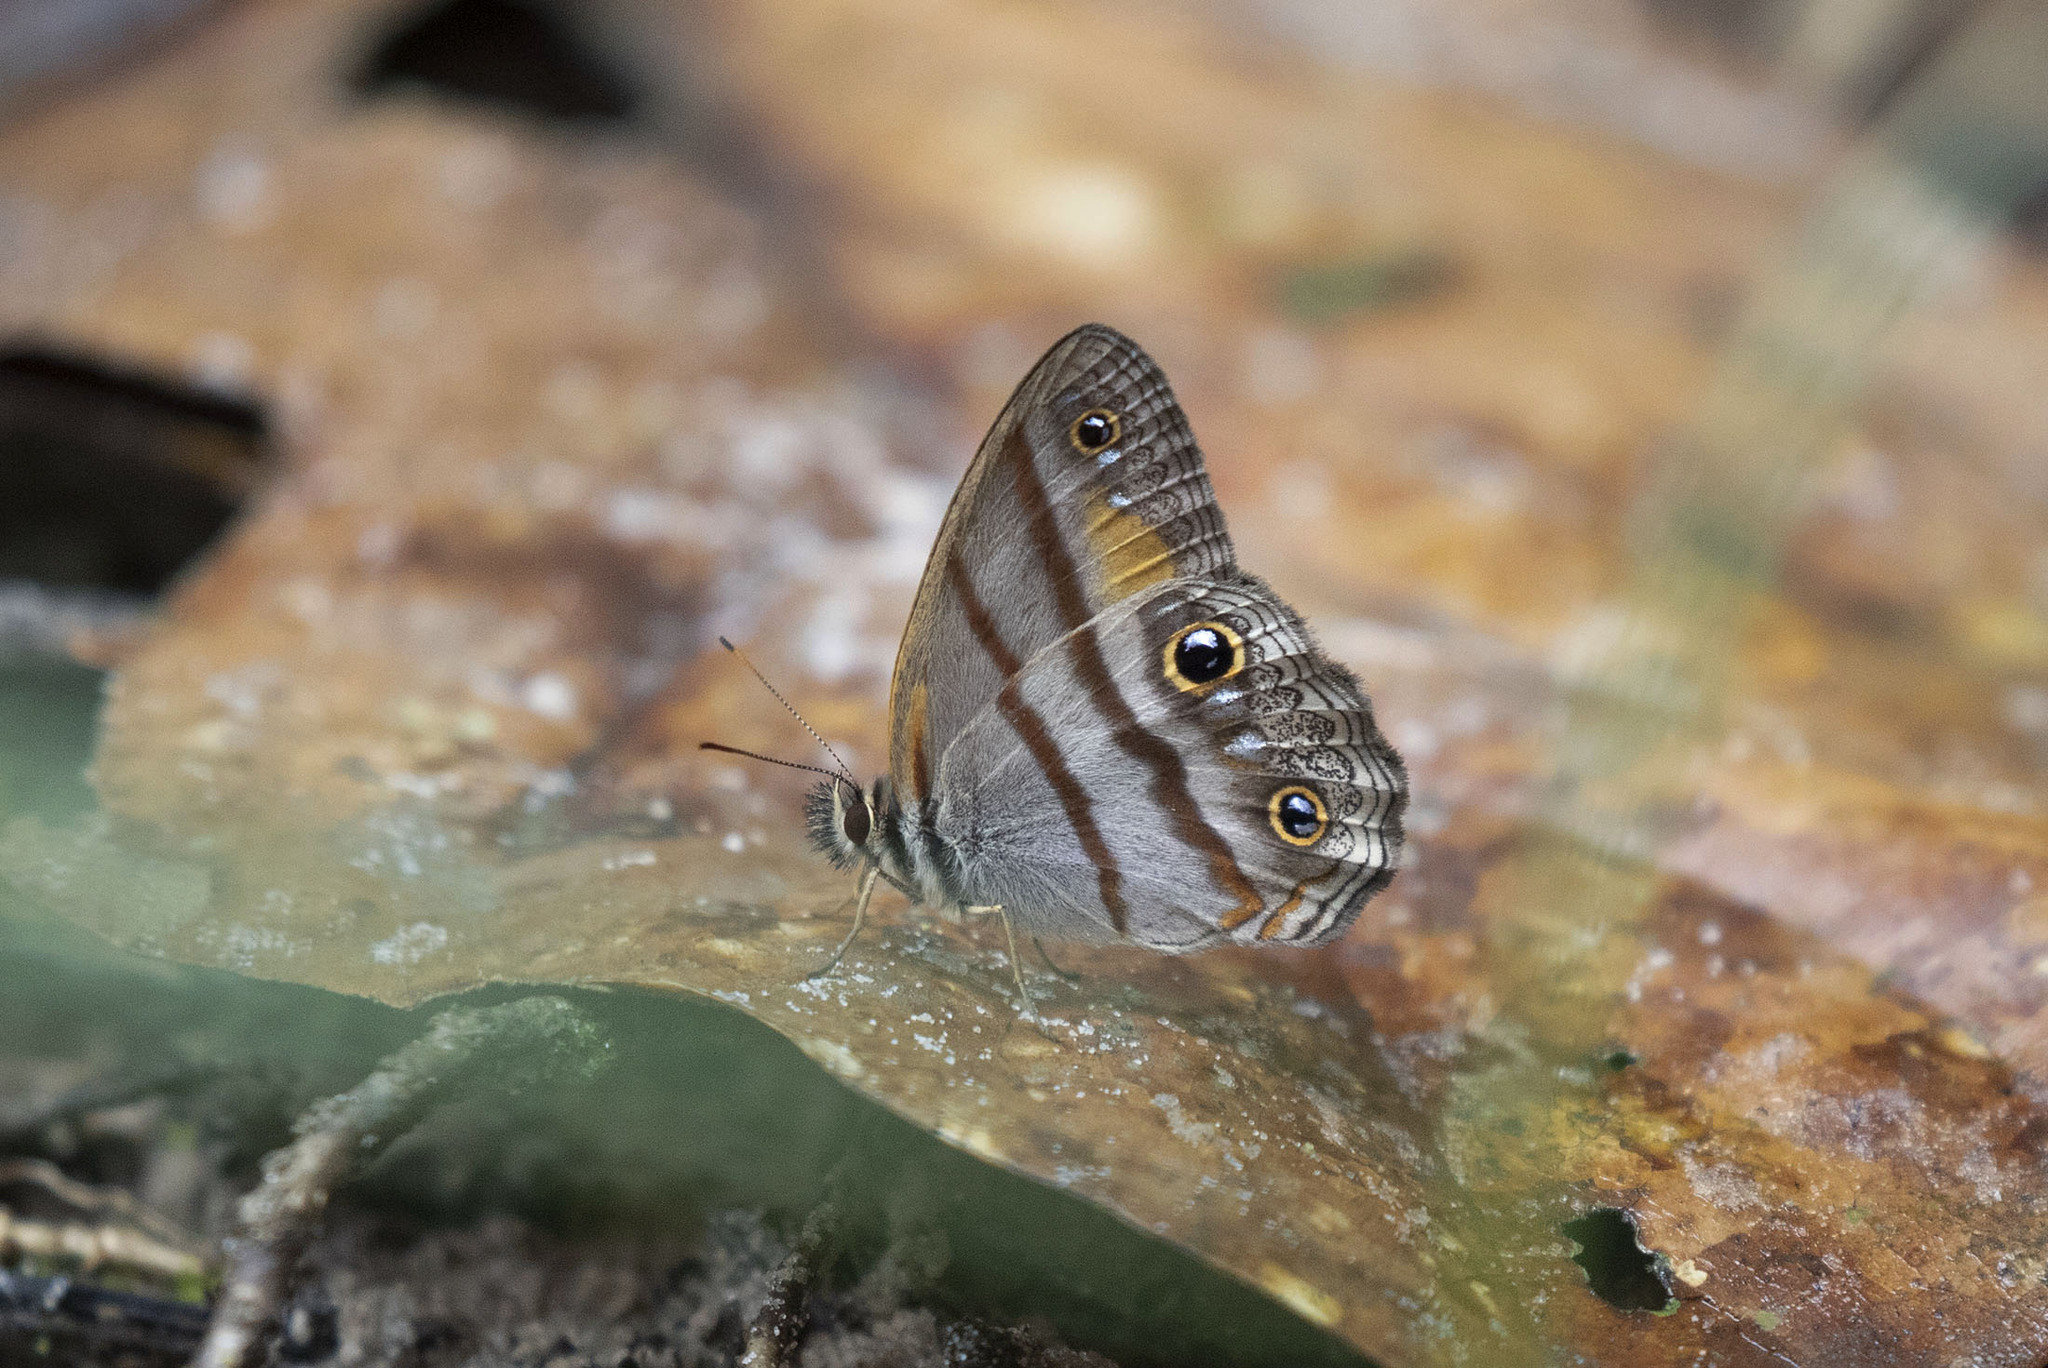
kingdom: Animalia
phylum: Arthropoda
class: Insecta
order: Lepidoptera
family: Nymphalidae
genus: Argyreuptychia
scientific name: Argyreuptychia penelope
